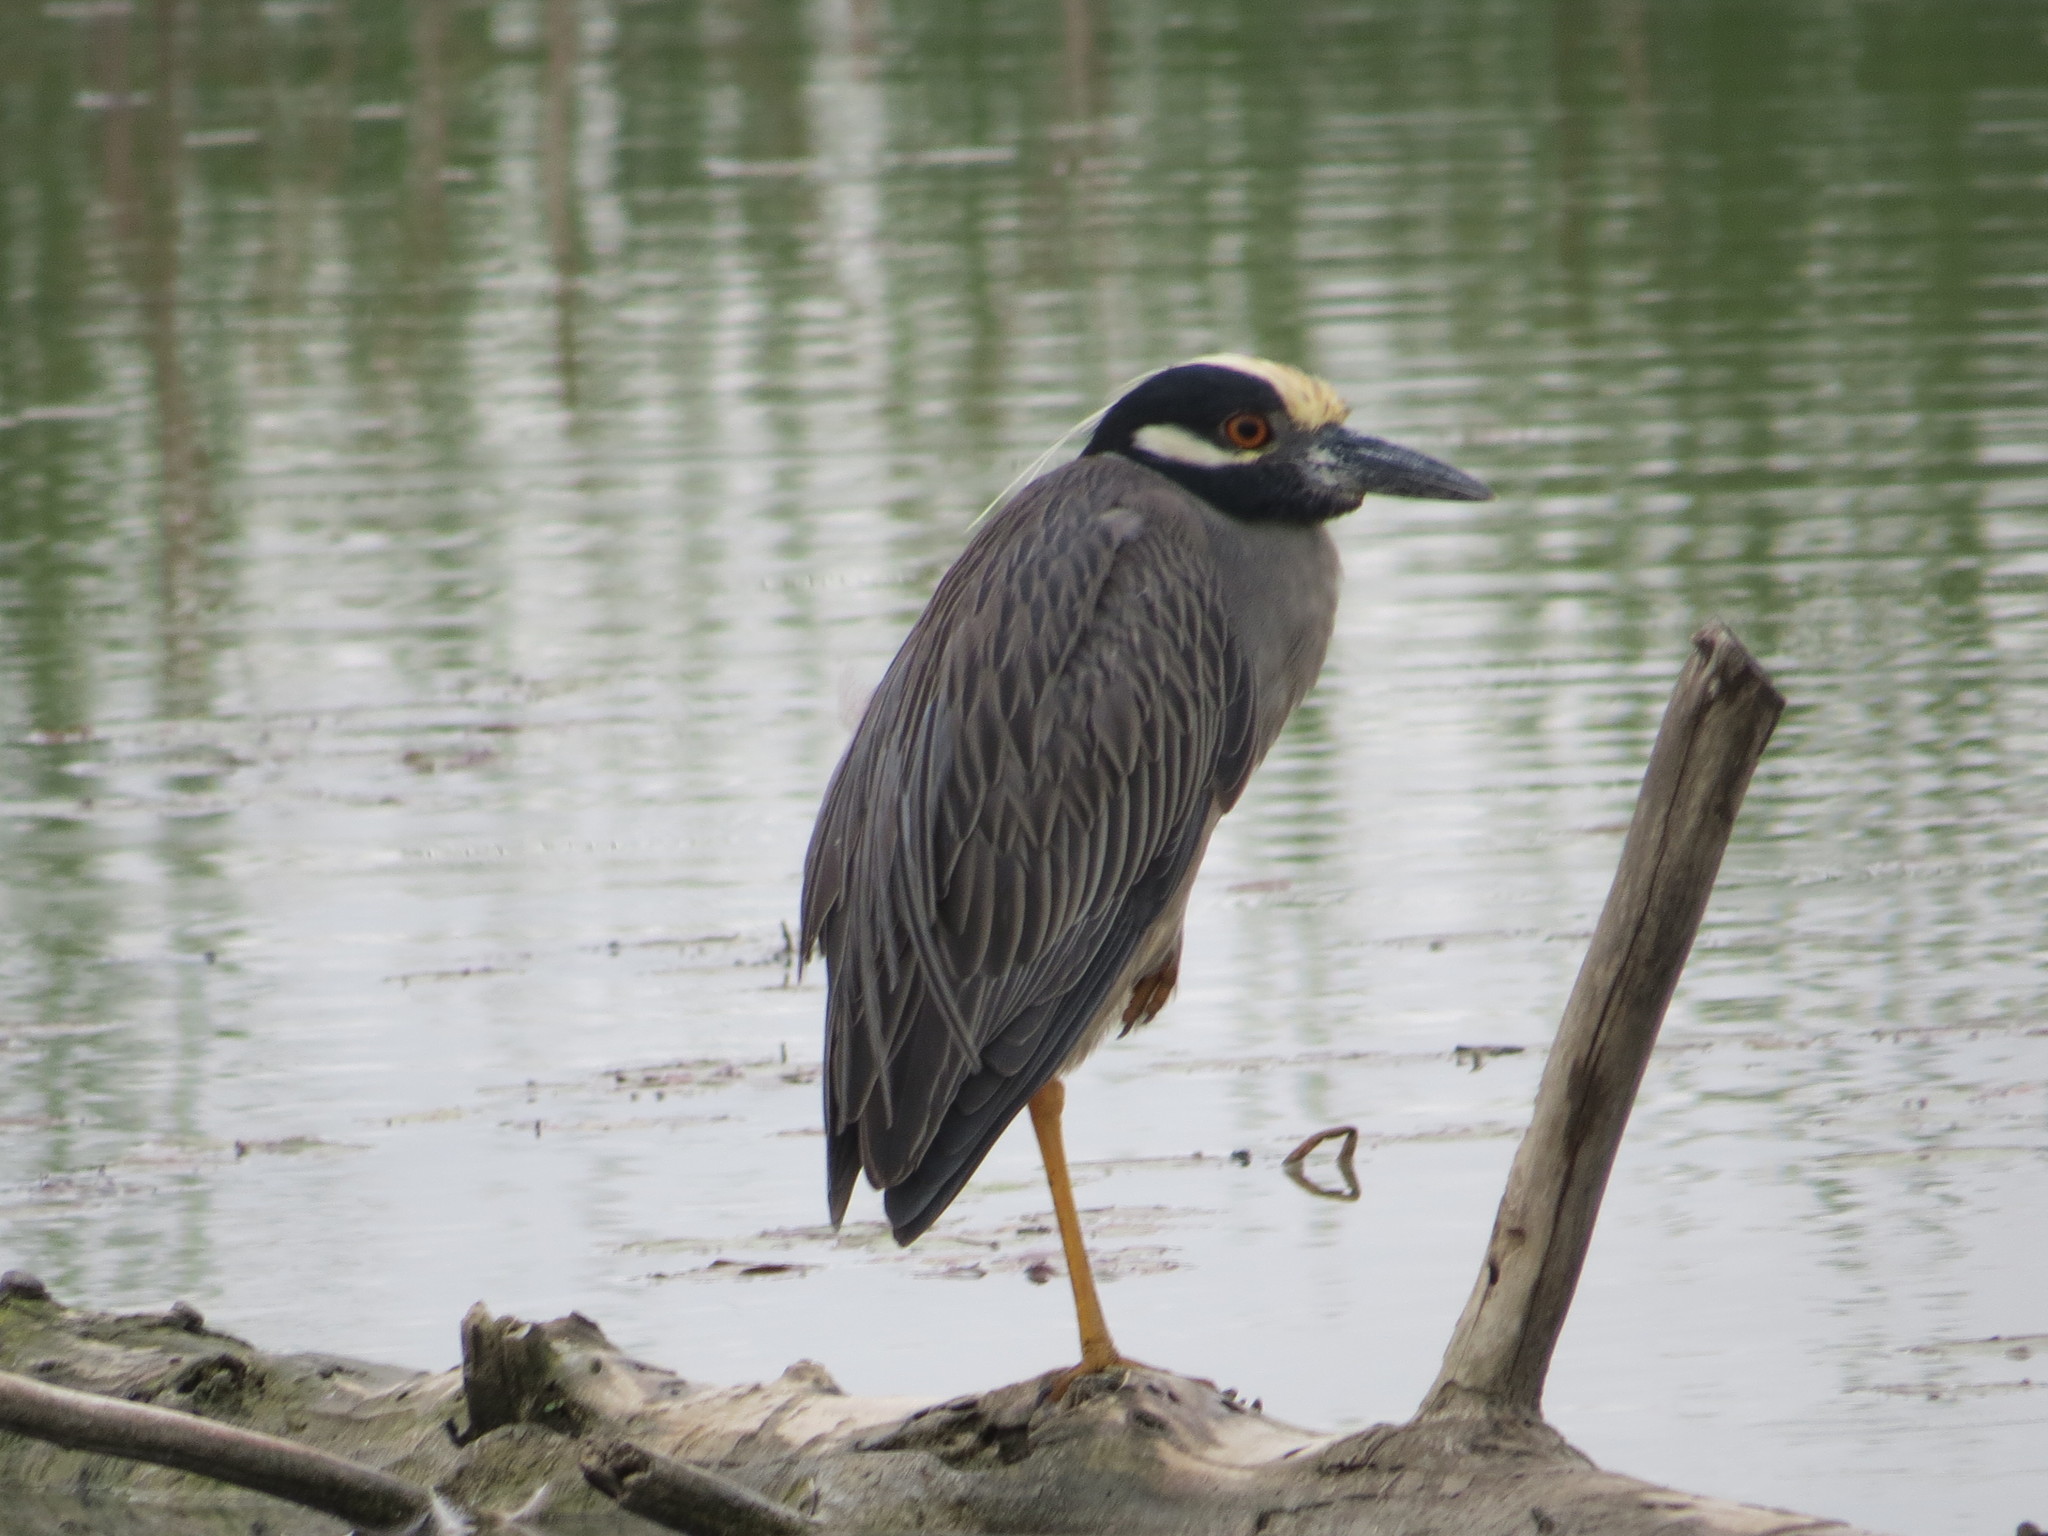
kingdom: Animalia
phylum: Chordata
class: Aves
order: Pelecaniformes
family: Ardeidae
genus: Nyctanassa
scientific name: Nyctanassa violacea
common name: Yellow-crowned night heron
